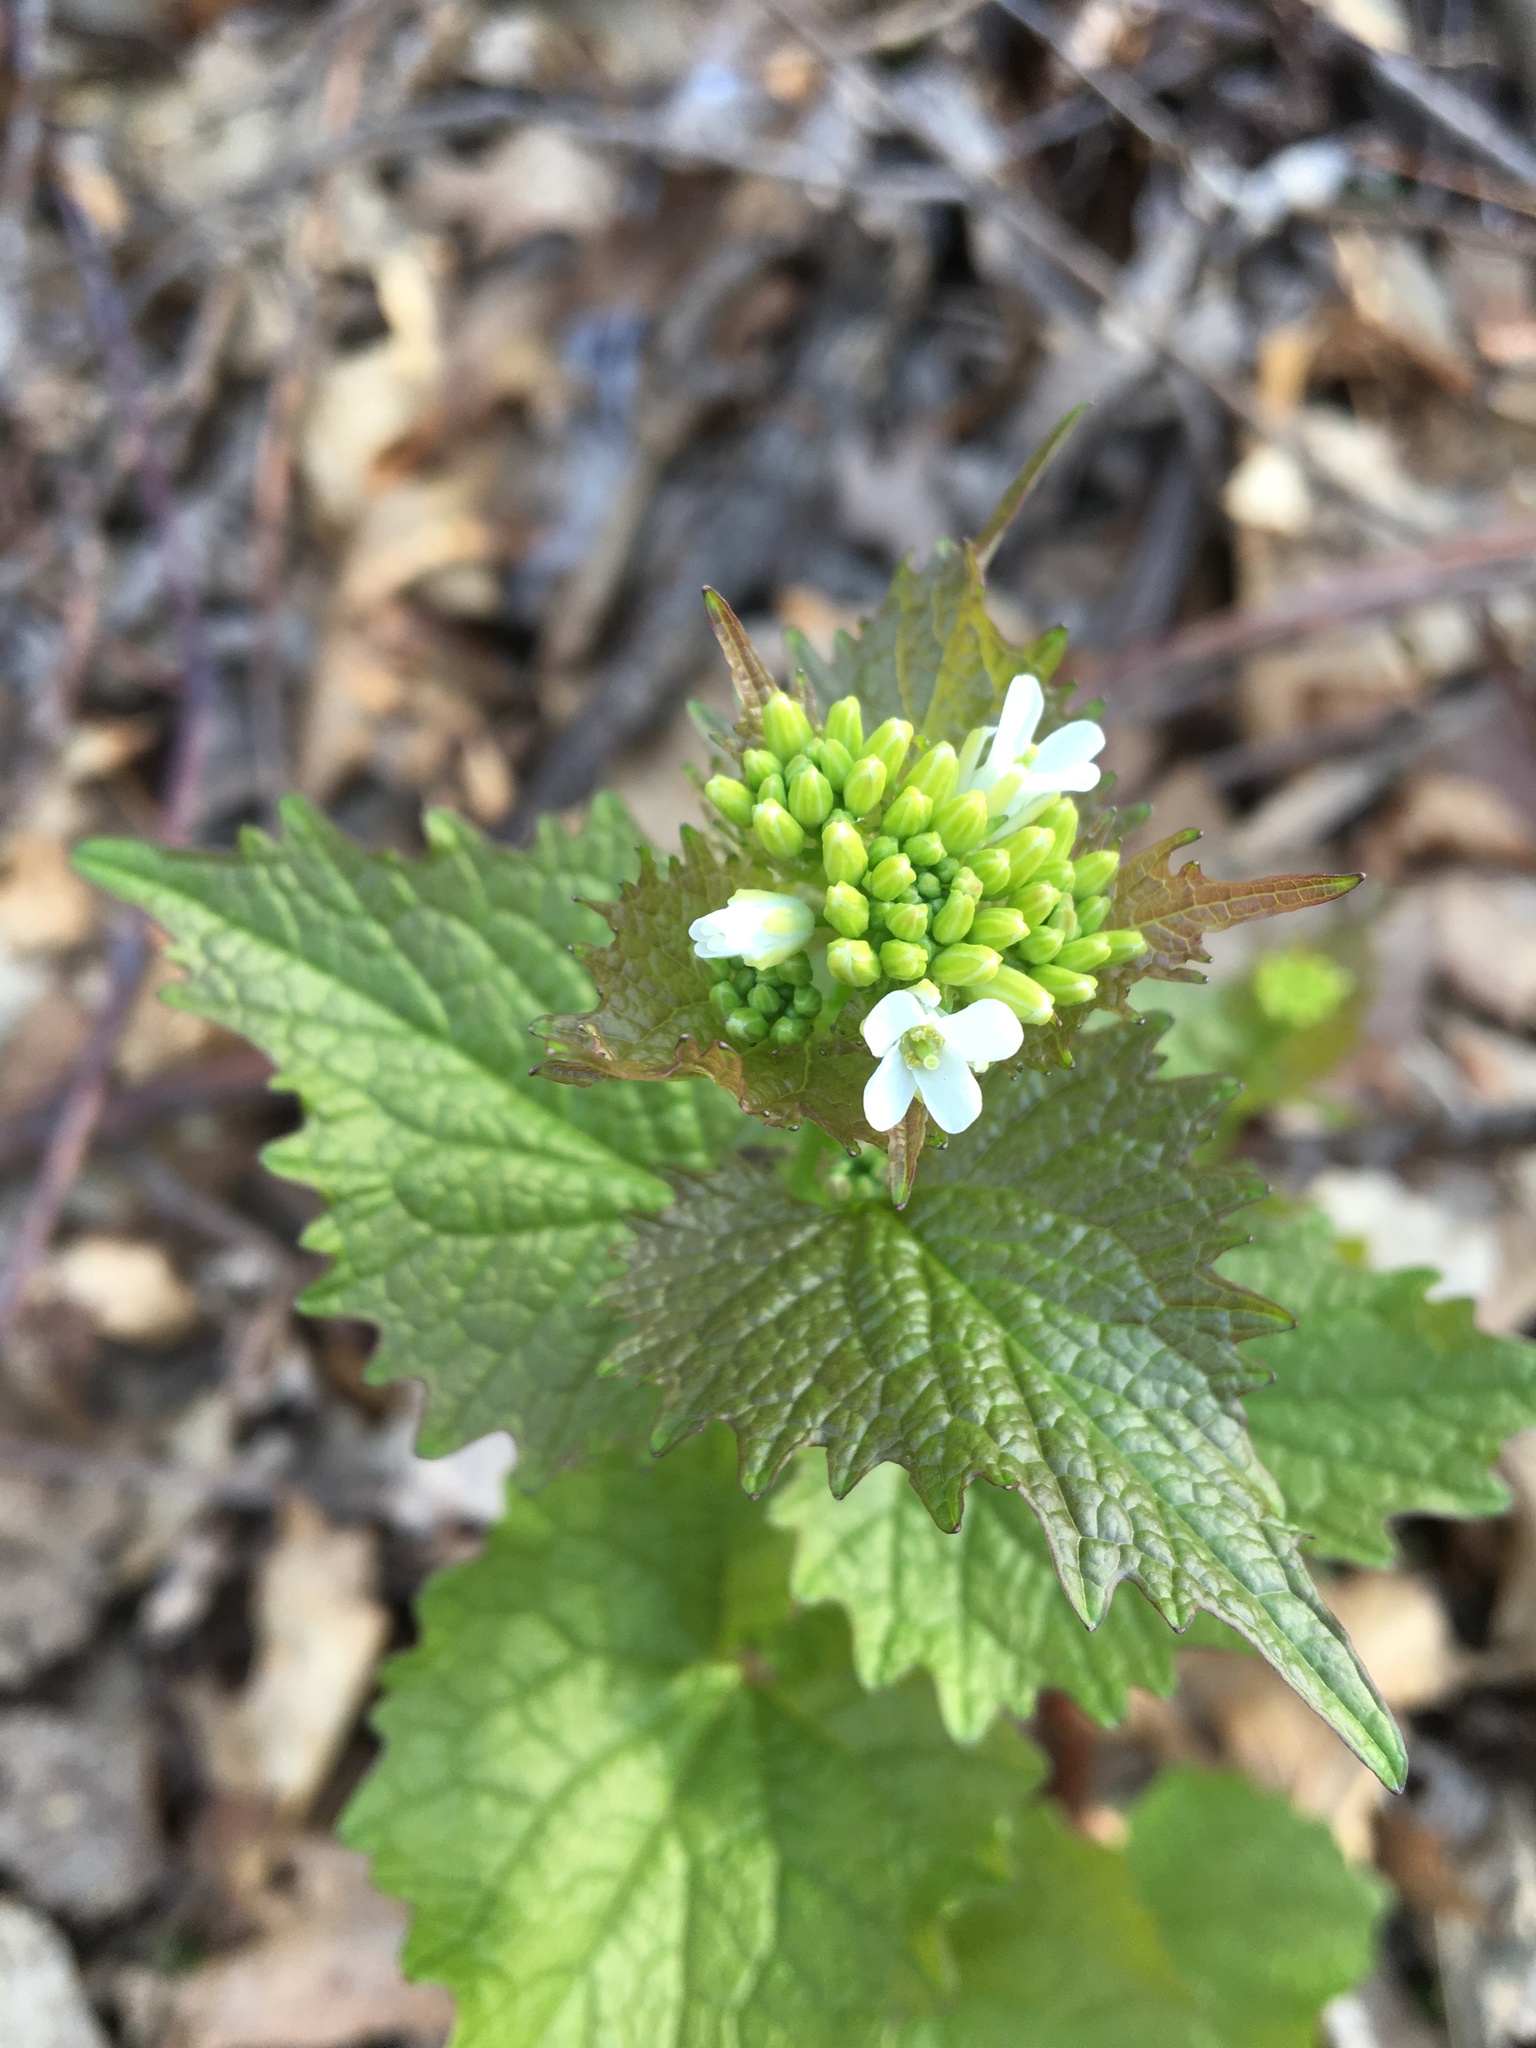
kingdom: Plantae
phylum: Tracheophyta
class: Magnoliopsida
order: Brassicales
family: Brassicaceae
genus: Alliaria
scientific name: Alliaria petiolata
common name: Garlic mustard
